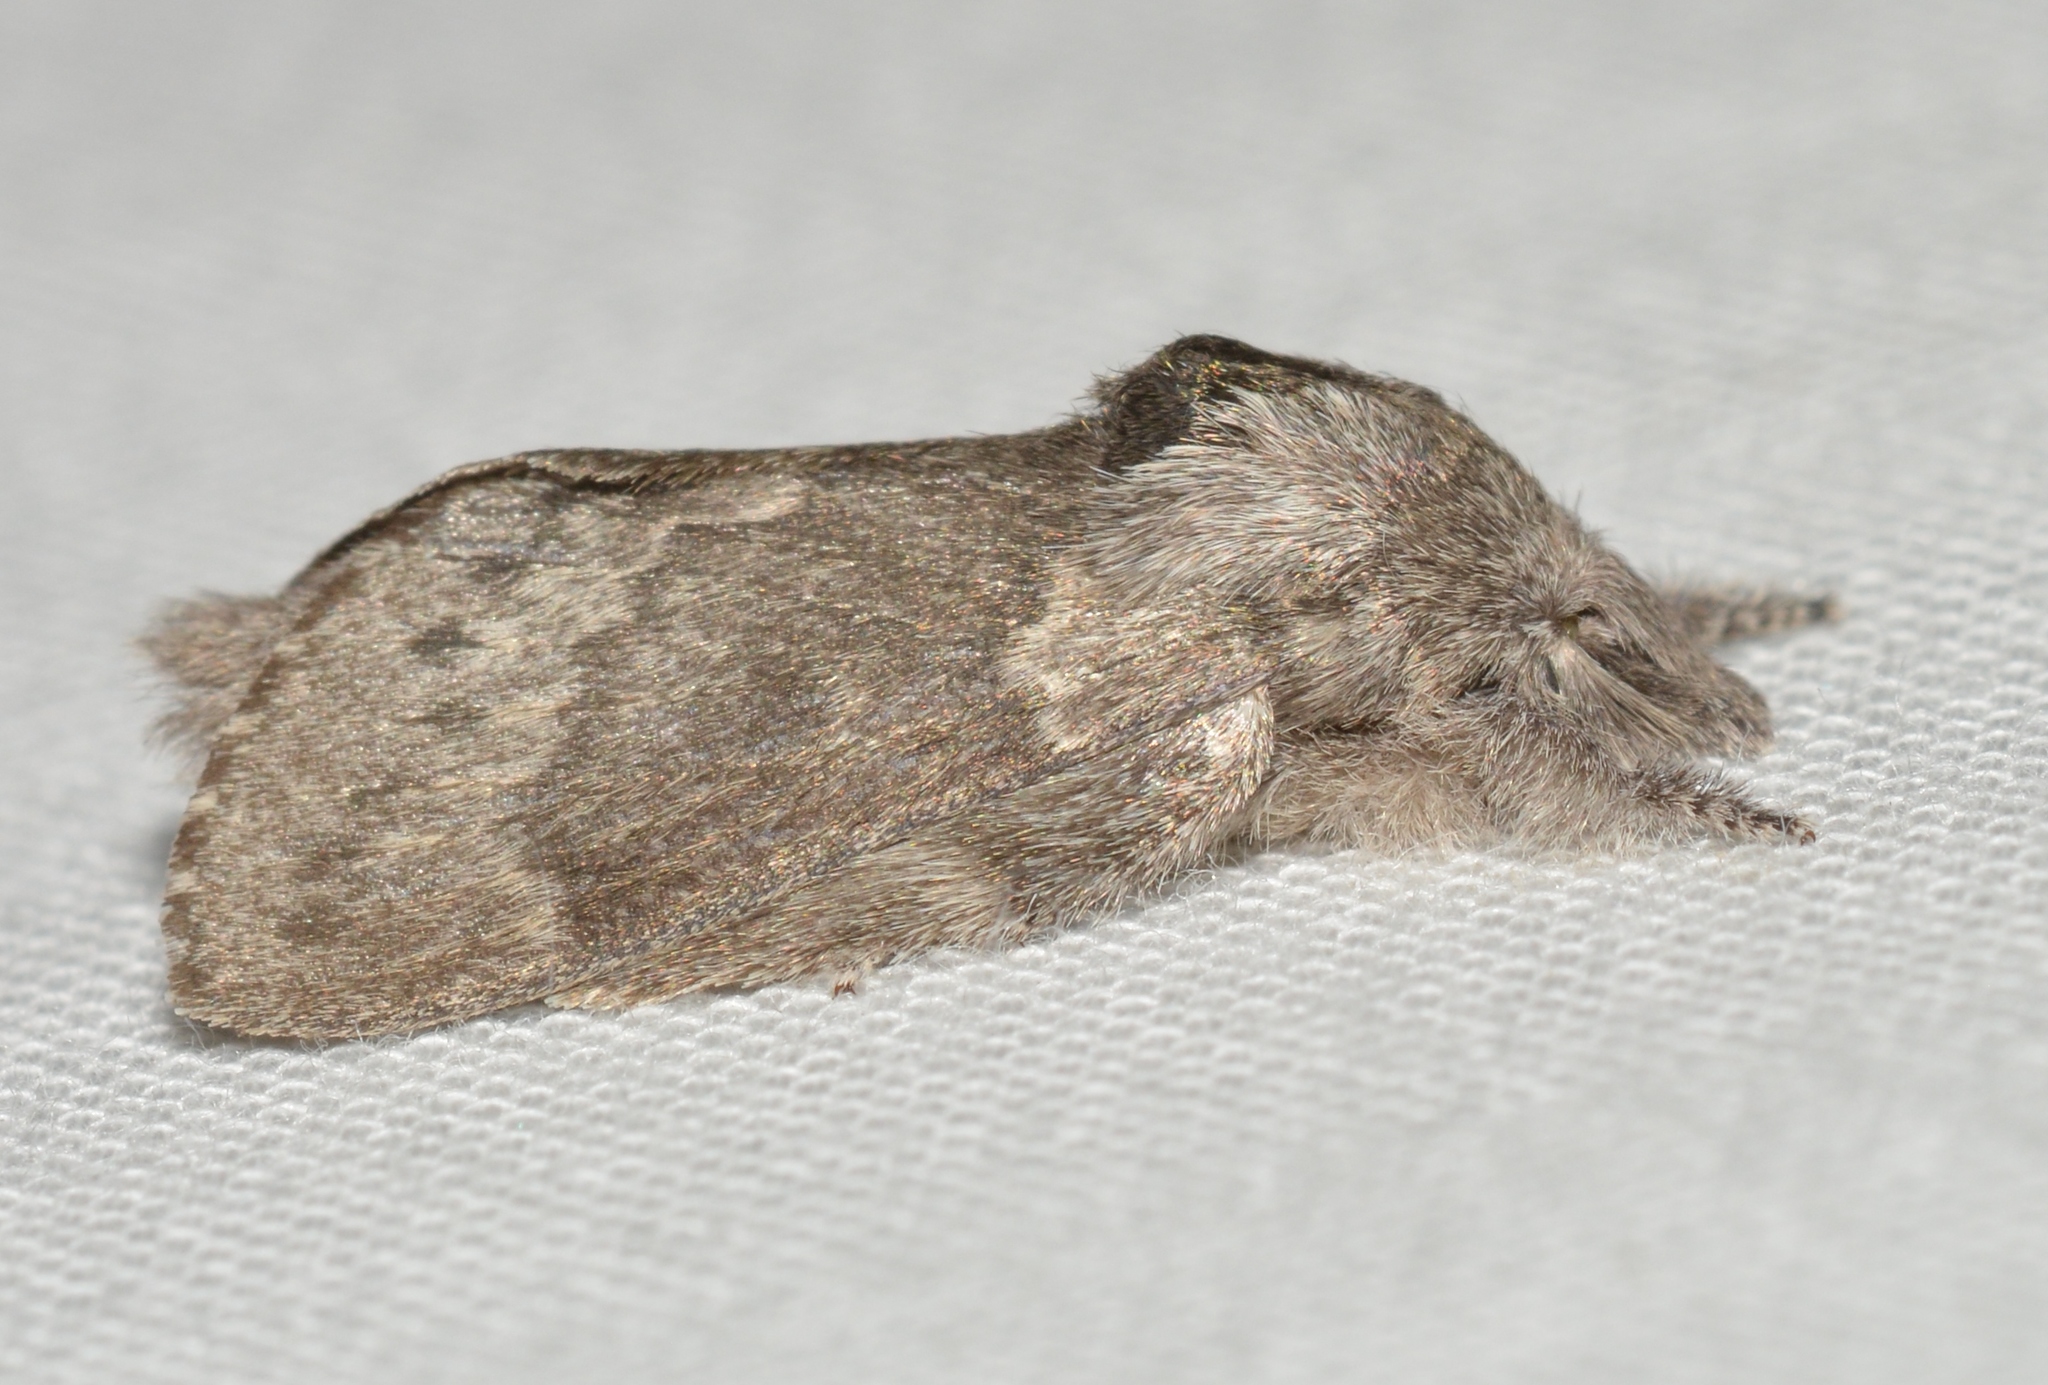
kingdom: Animalia
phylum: Arthropoda
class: Insecta
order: Lepidoptera
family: Lasiocampidae
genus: Heteropacha
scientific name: Heteropacha rileyana
